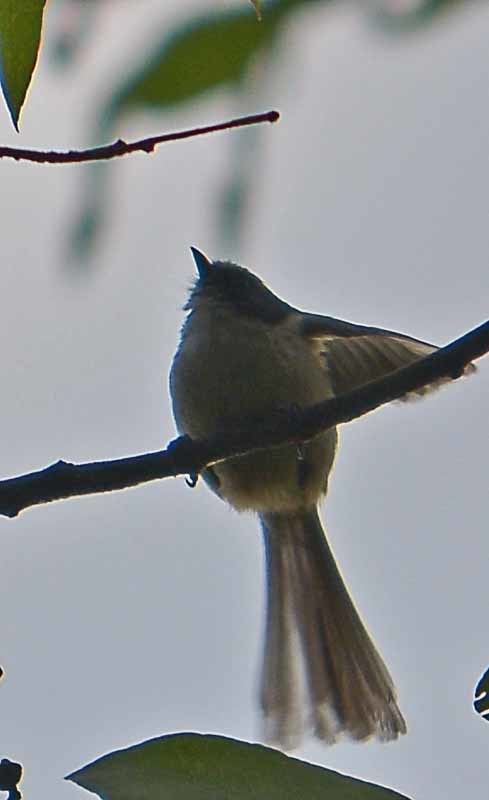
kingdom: Animalia
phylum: Chordata
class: Aves
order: Passeriformes
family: Aegithalidae
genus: Psaltriparus
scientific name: Psaltriparus minimus
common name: American bushtit
